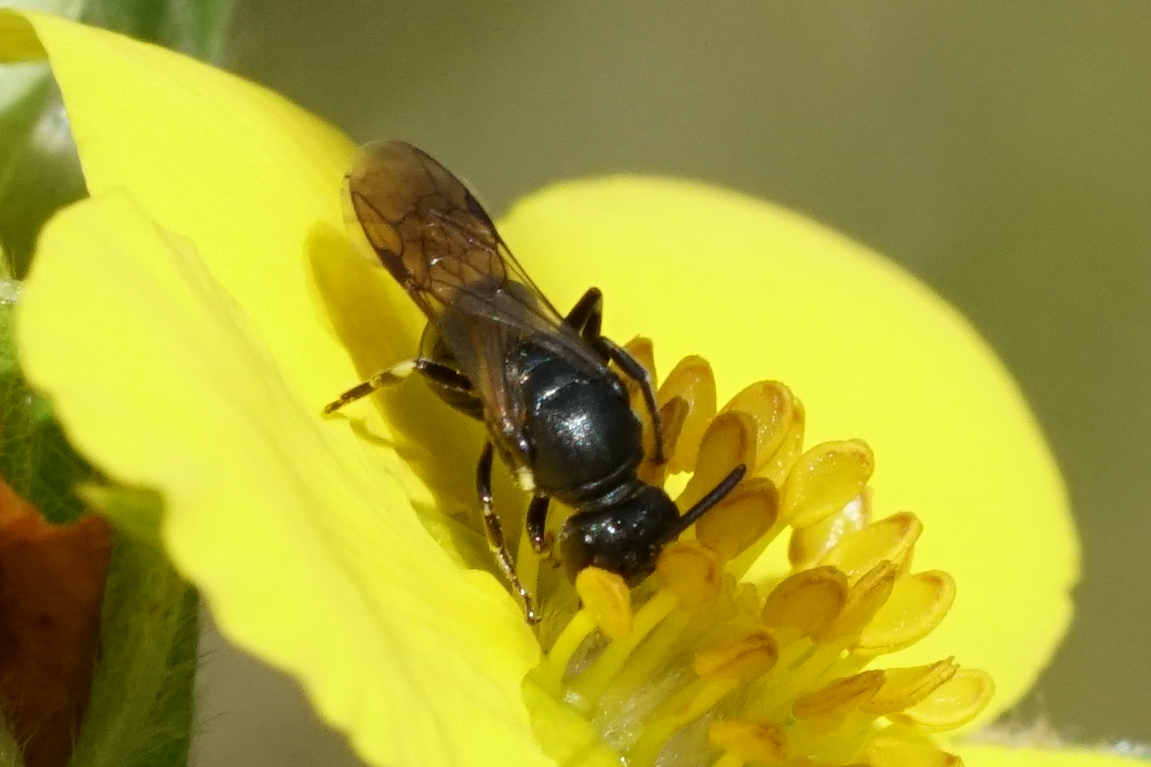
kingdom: Animalia
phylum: Arthropoda
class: Insecta
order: Hymenoptera
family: Colletidae
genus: Hylaeus
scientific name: Hylaeus
